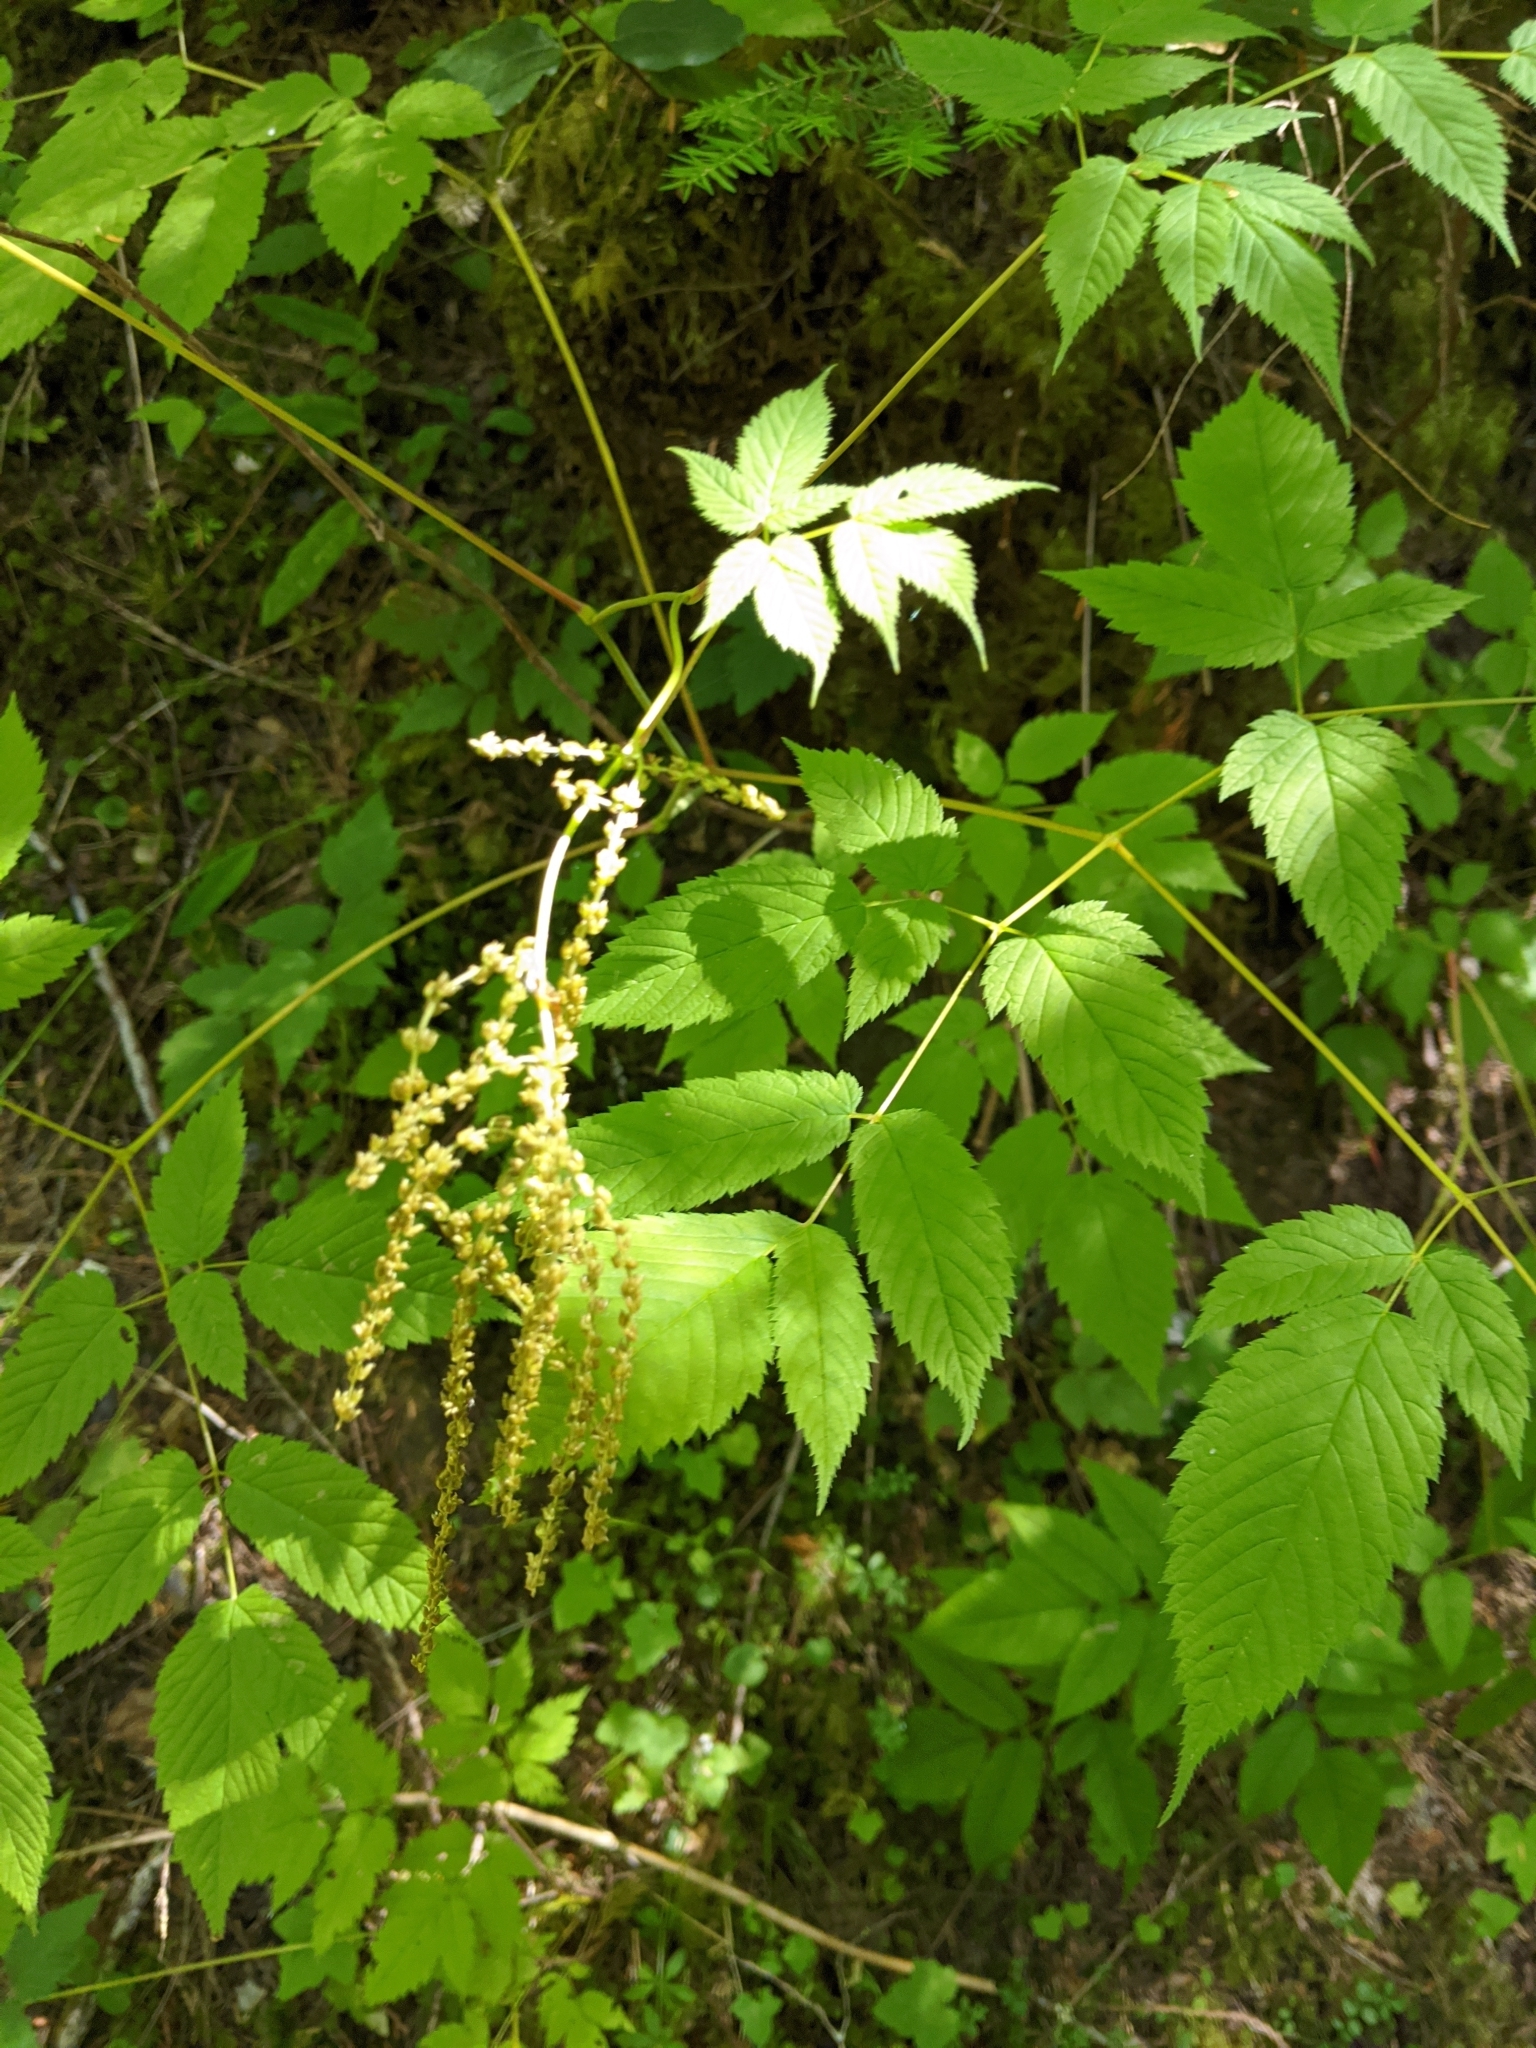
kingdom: Plantae
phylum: Tracheophyta
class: Magnoliopsida
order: Rosales
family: Rosaceae
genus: Aruncus
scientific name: Aruncus dioicus
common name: Buck's-beard
